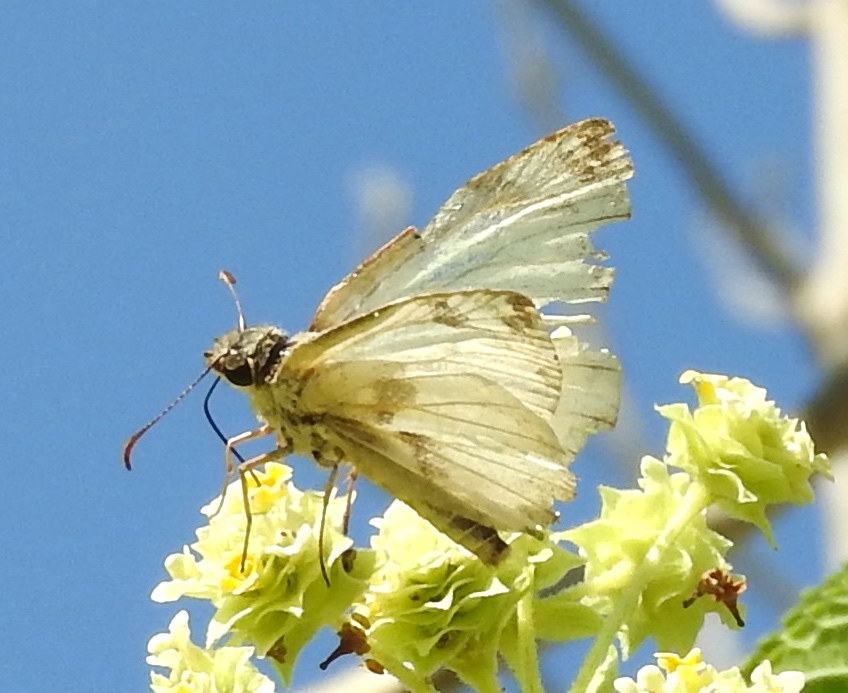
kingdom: Animalia
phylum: Arthropoda
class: Insecta
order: Lepidoptera
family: Hesperiidae
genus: Heliopetes
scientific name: Heliopetes
